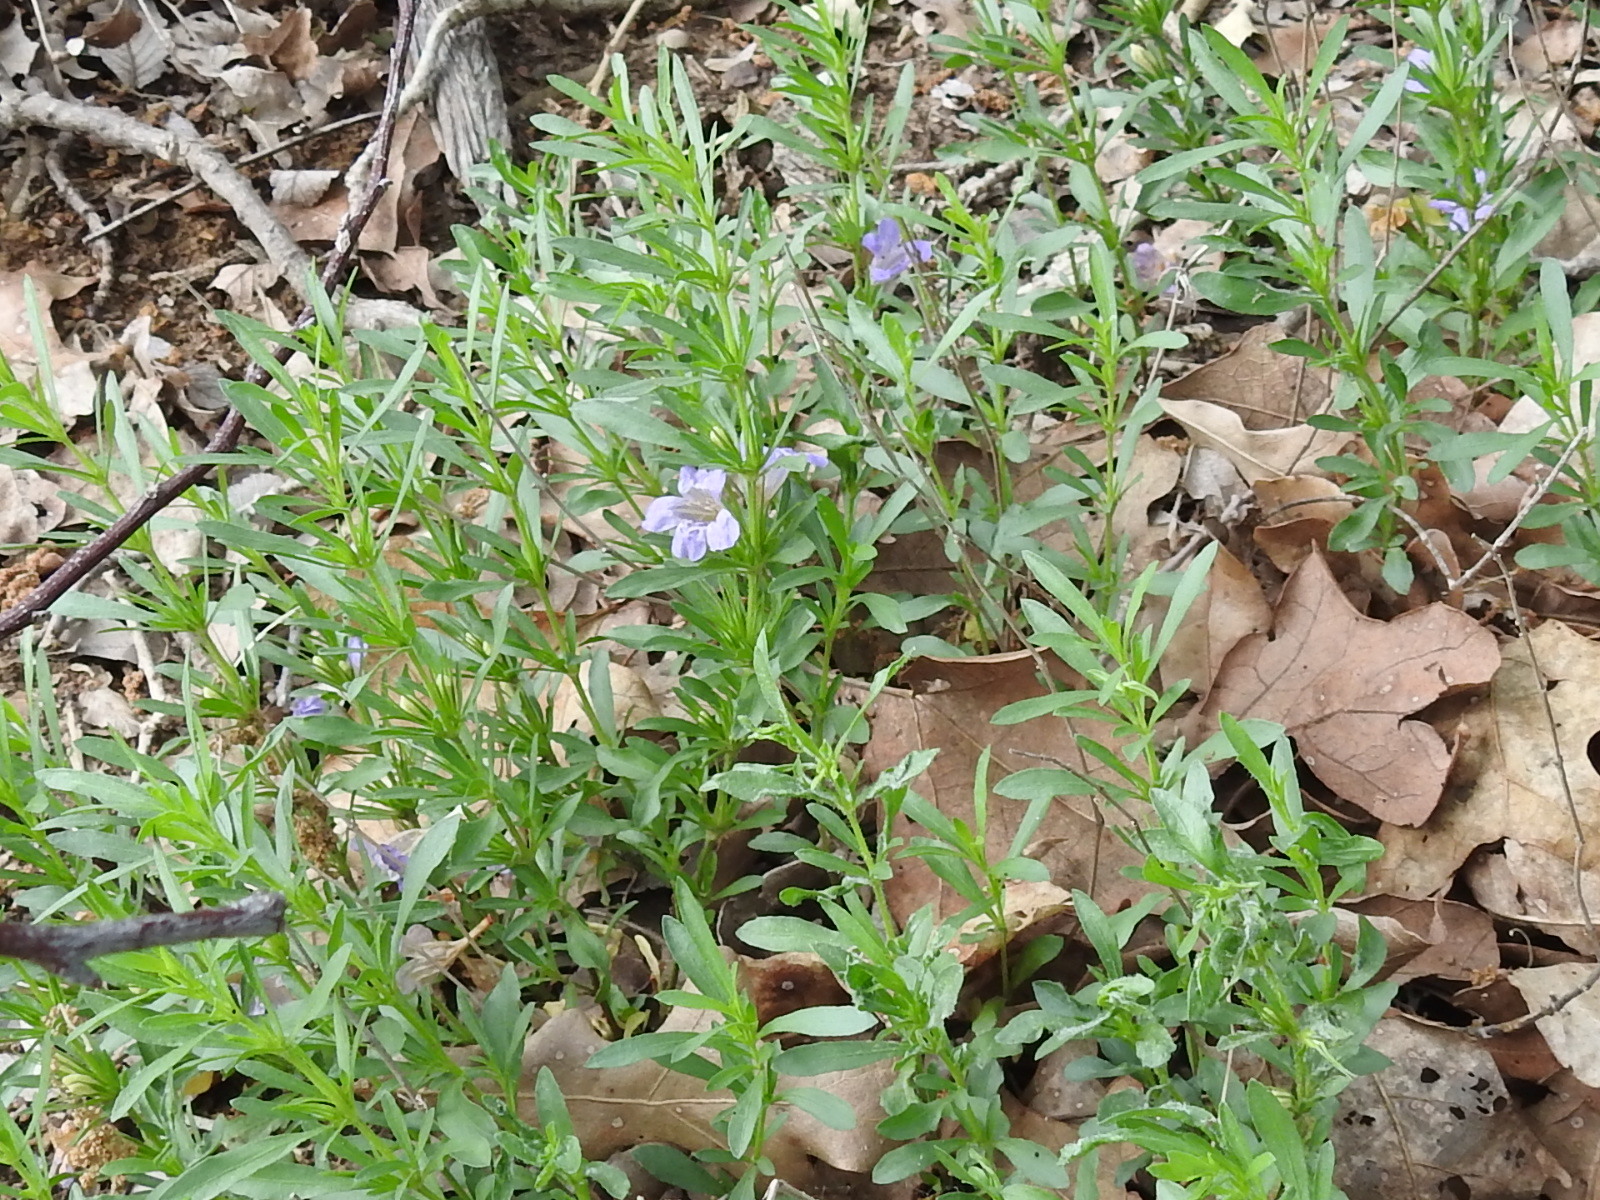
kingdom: Plantae
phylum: Tracheophyta
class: Magnoliopsida
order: Lamiales
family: Acanthaceae
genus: Dyschoriste
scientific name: Dyschoriste linearis
